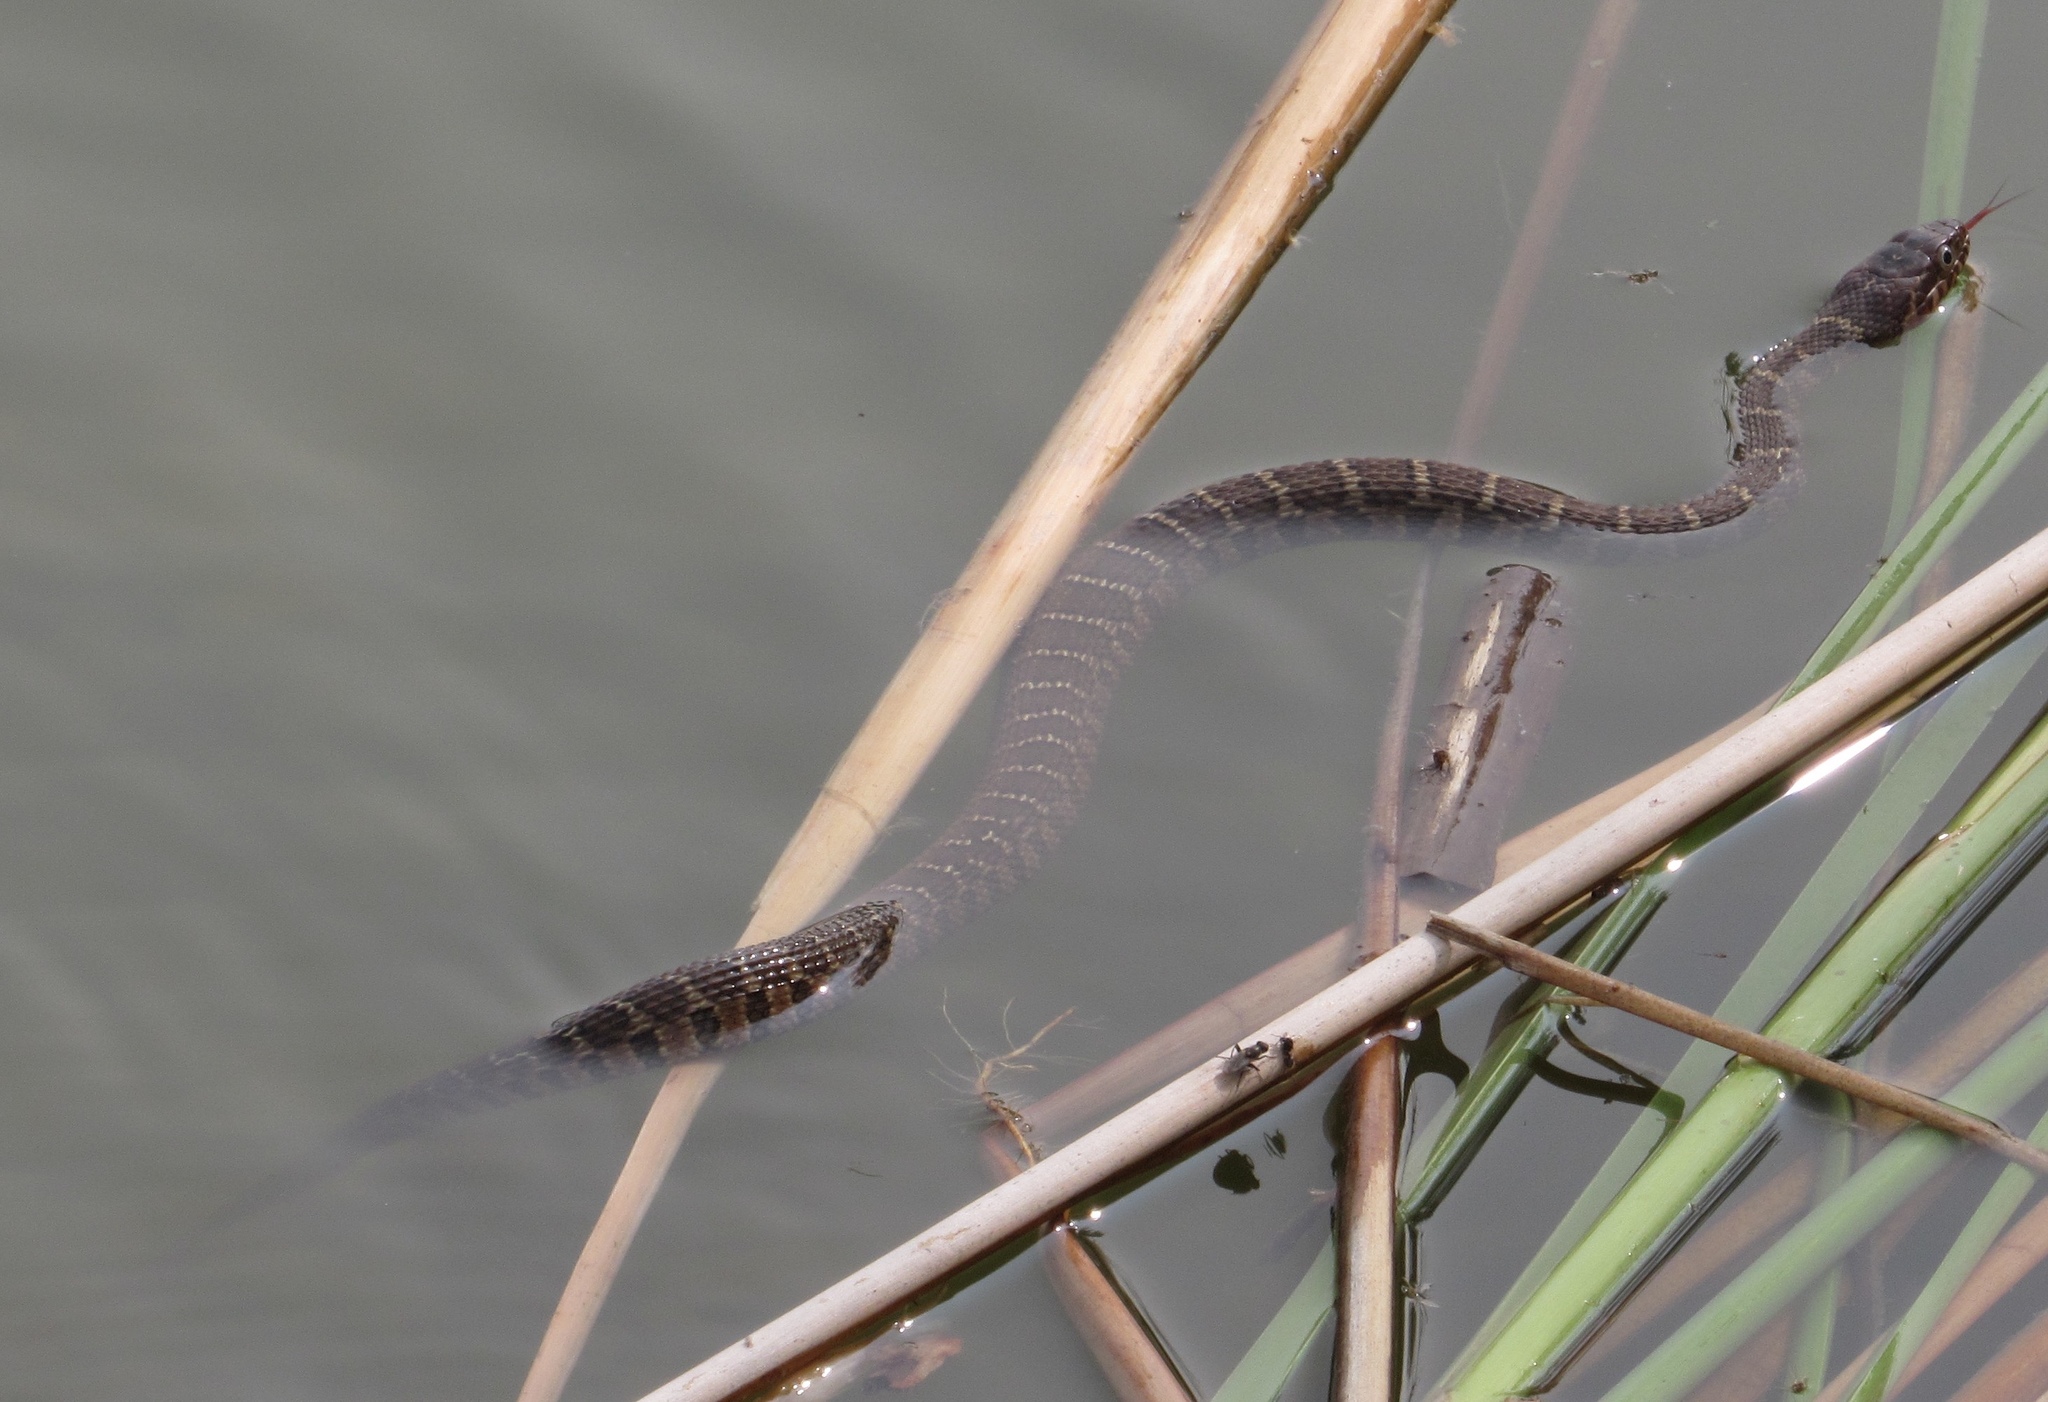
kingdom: Animalia
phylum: Chordata
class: Squamata
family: Colubridae
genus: Nerodia
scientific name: Nerodia erythrogaster
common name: Plainbelly water snake
